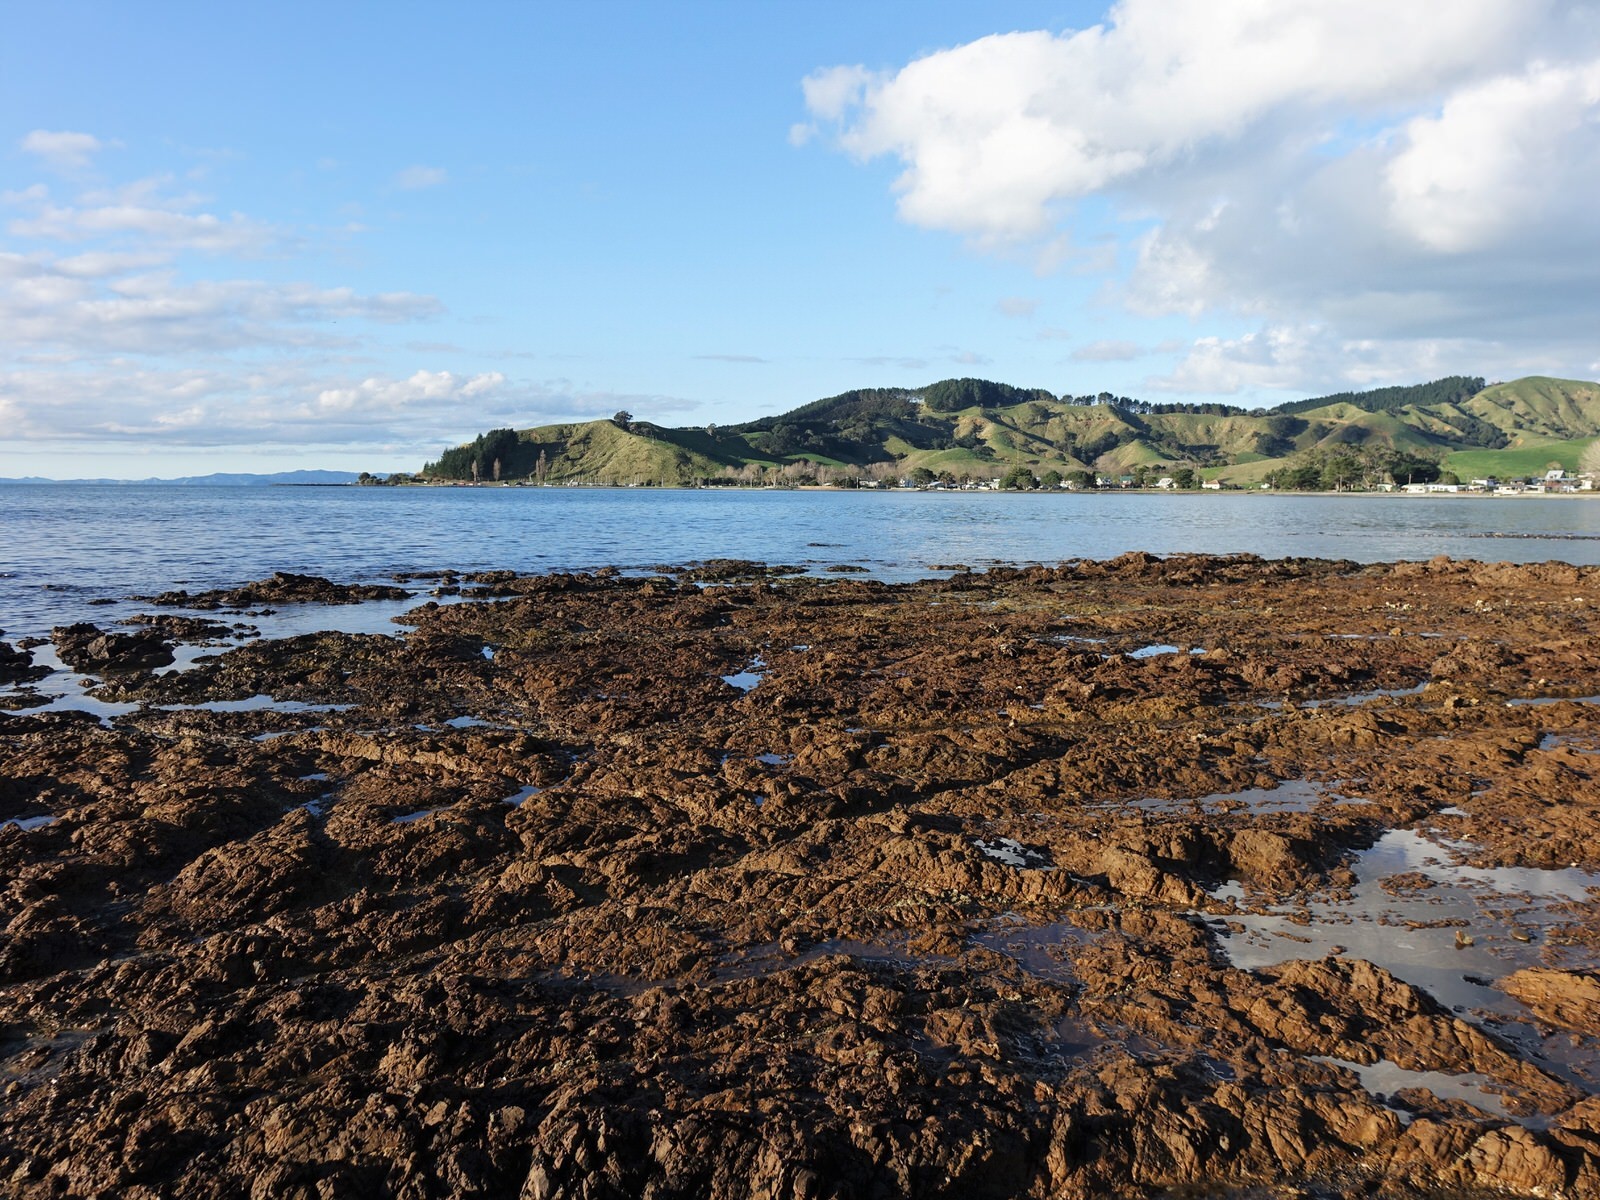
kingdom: Animalia
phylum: Mollusca
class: Gastropoda
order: Littorinimorpha
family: Littorinidae
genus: Austrolittorina
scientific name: Austrolittorina antipodum
